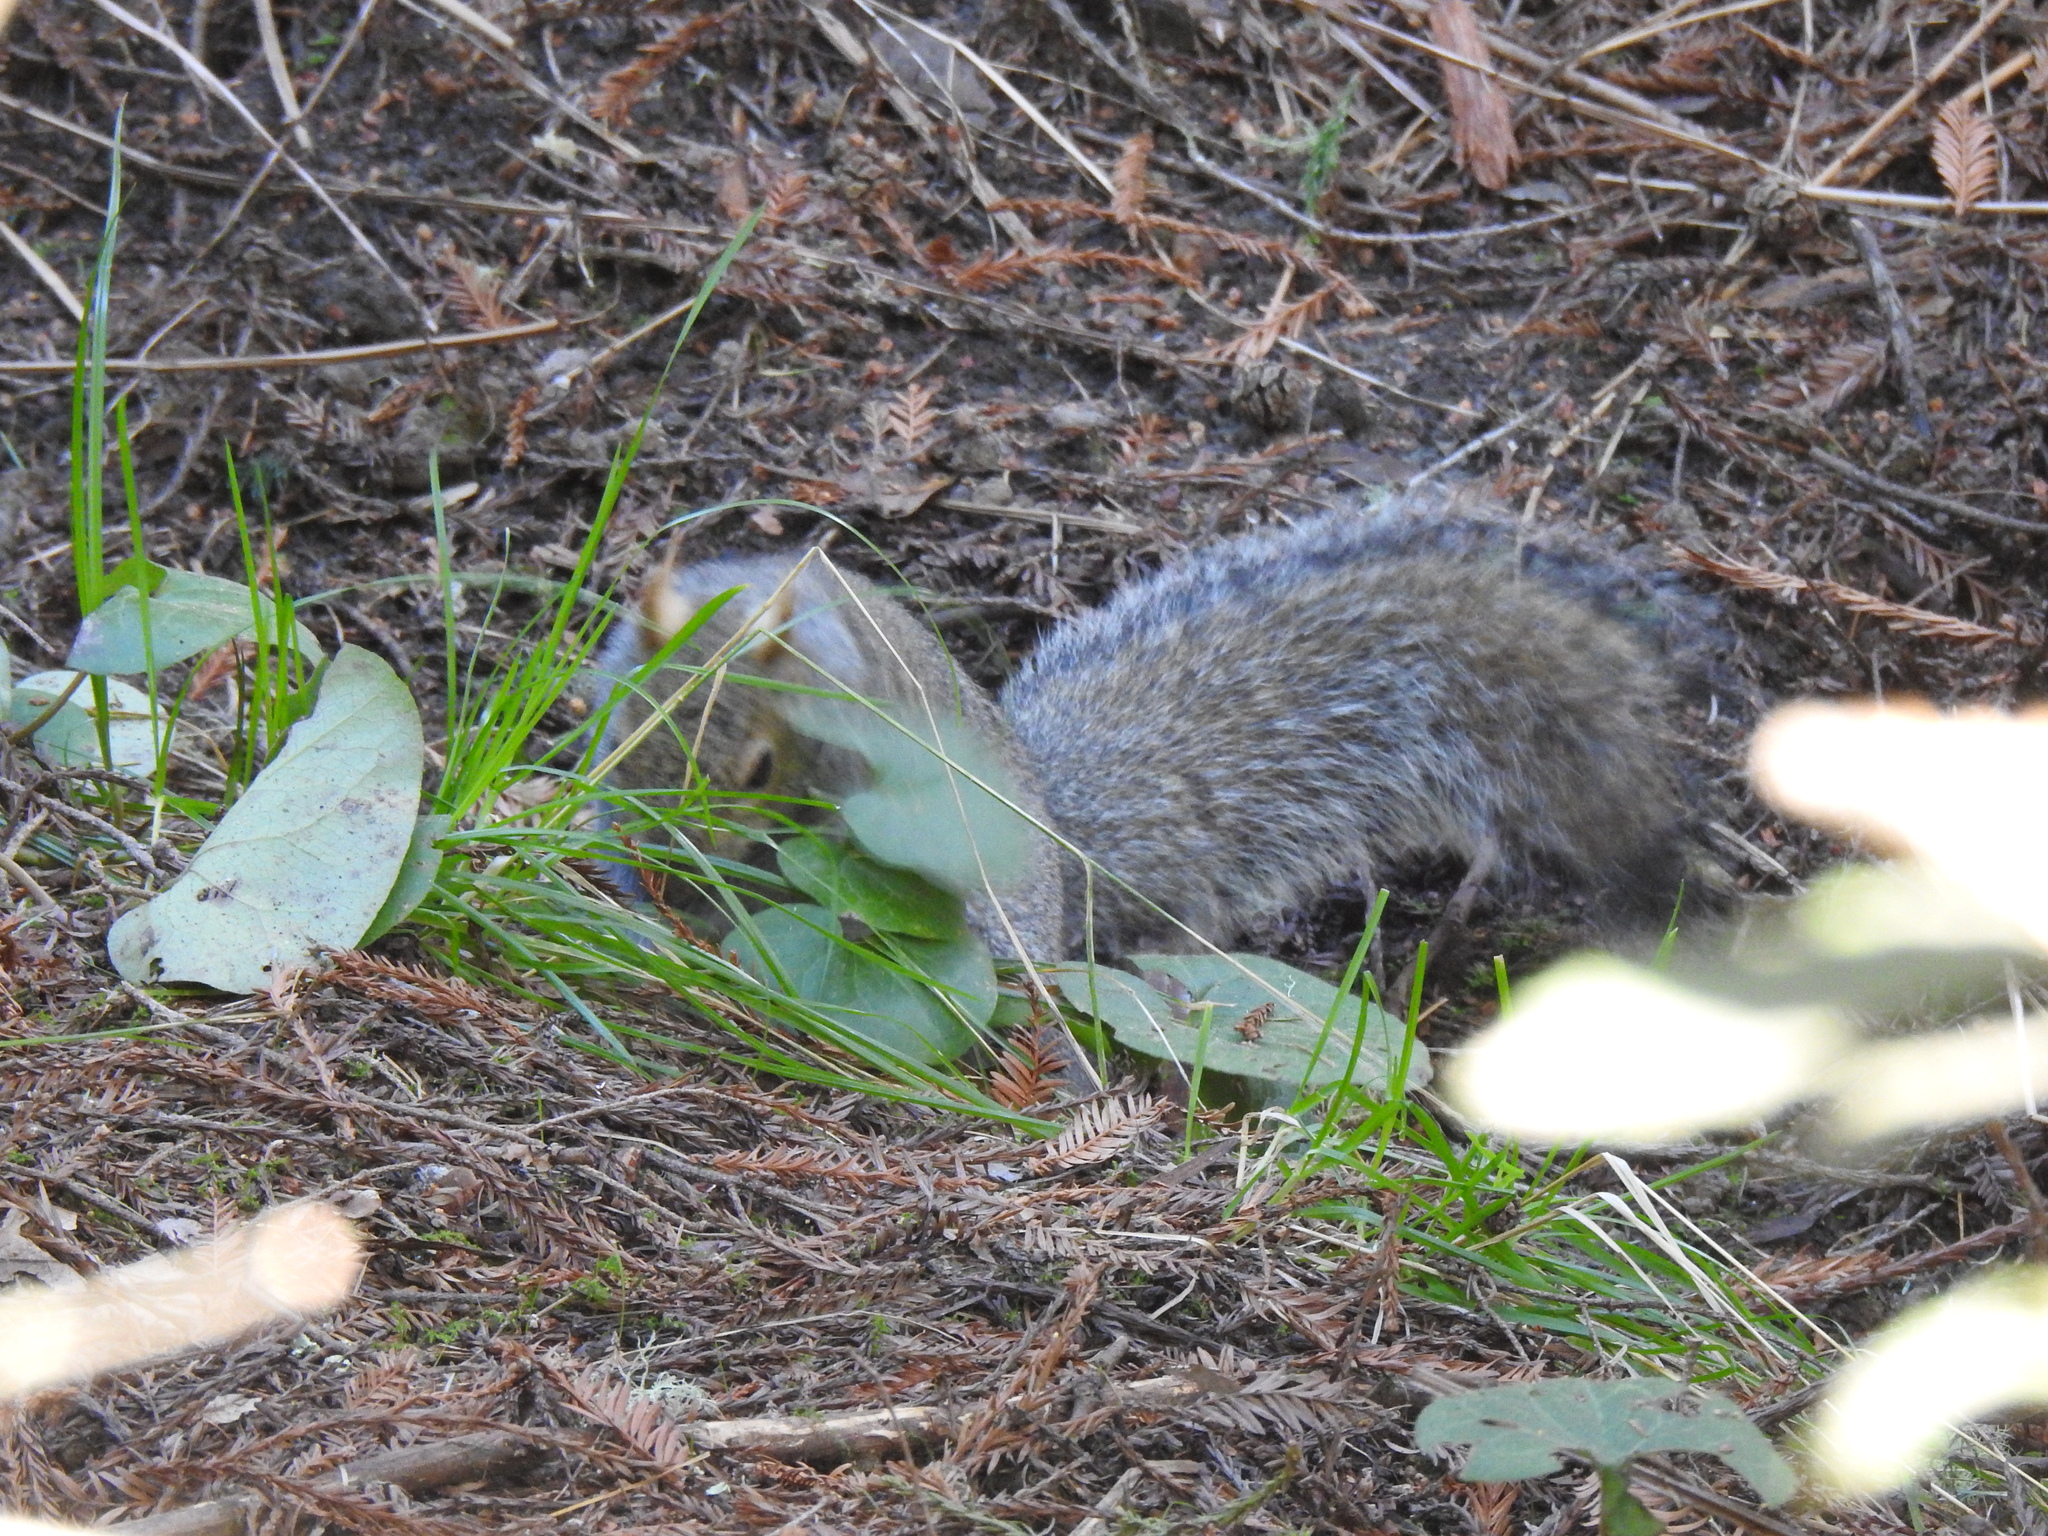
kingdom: Animalia
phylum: Chordata
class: Mammalia
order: Rodentia
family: Sciuridae
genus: Sciurus
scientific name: Sciurus carolinensis
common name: Eastern gray squirrel
